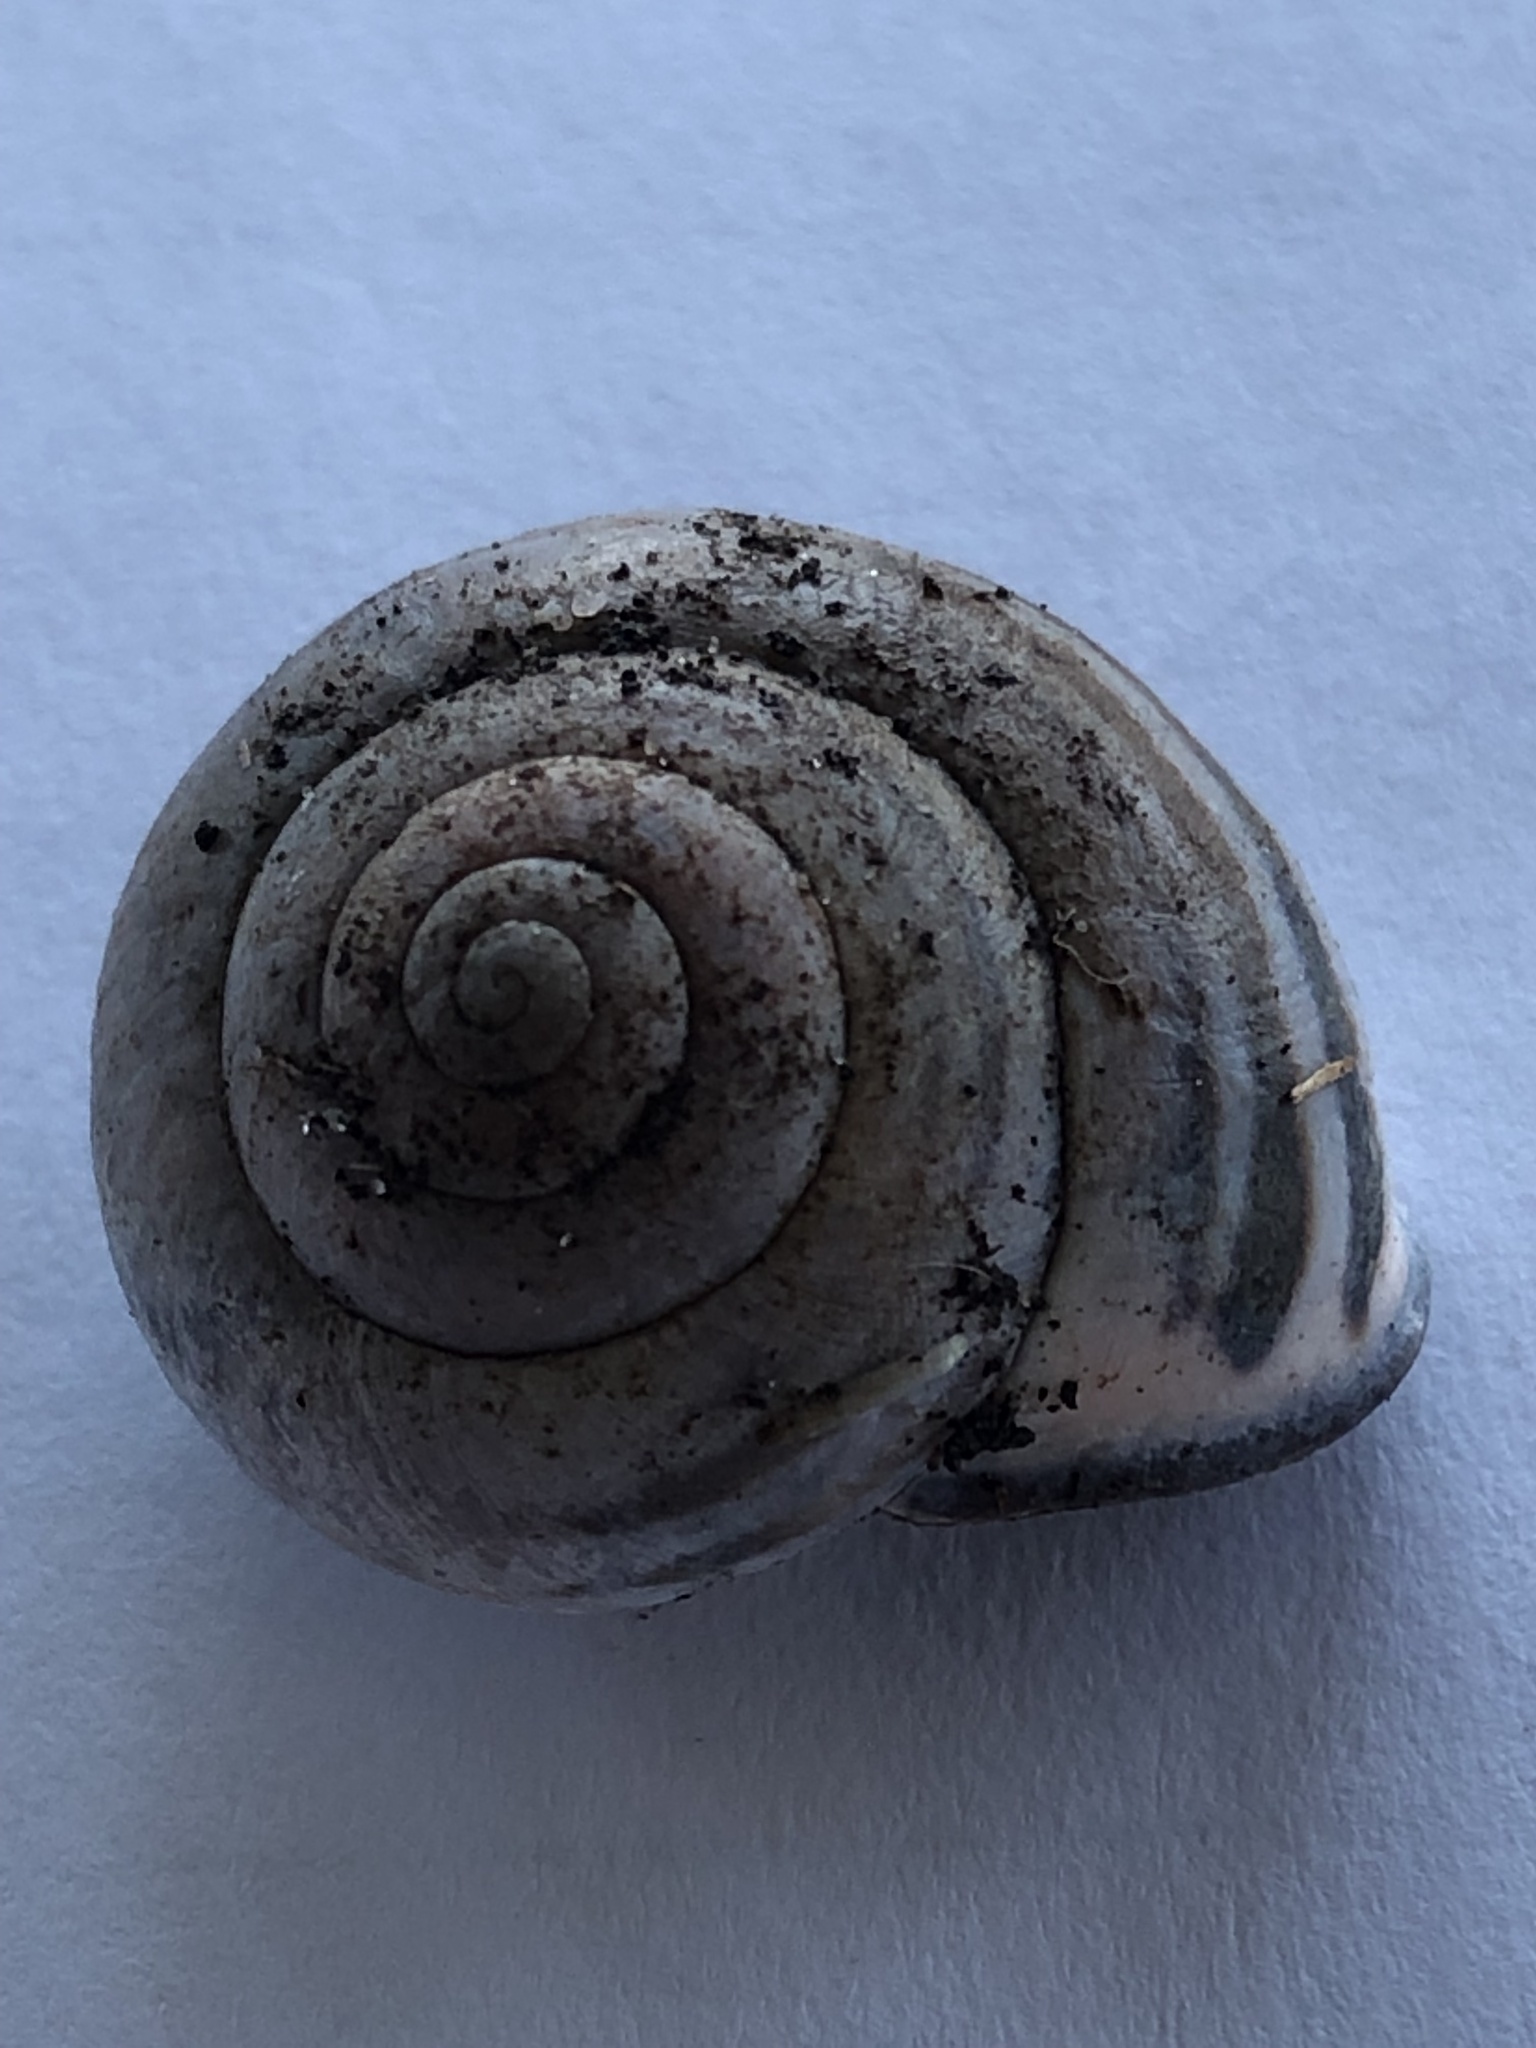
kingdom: Animalia
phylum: Mollusca
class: Gastropoda
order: Stylommatophora
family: Helicidae
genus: Cepaea
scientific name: Cepaea nemoralis
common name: Grovesnail
